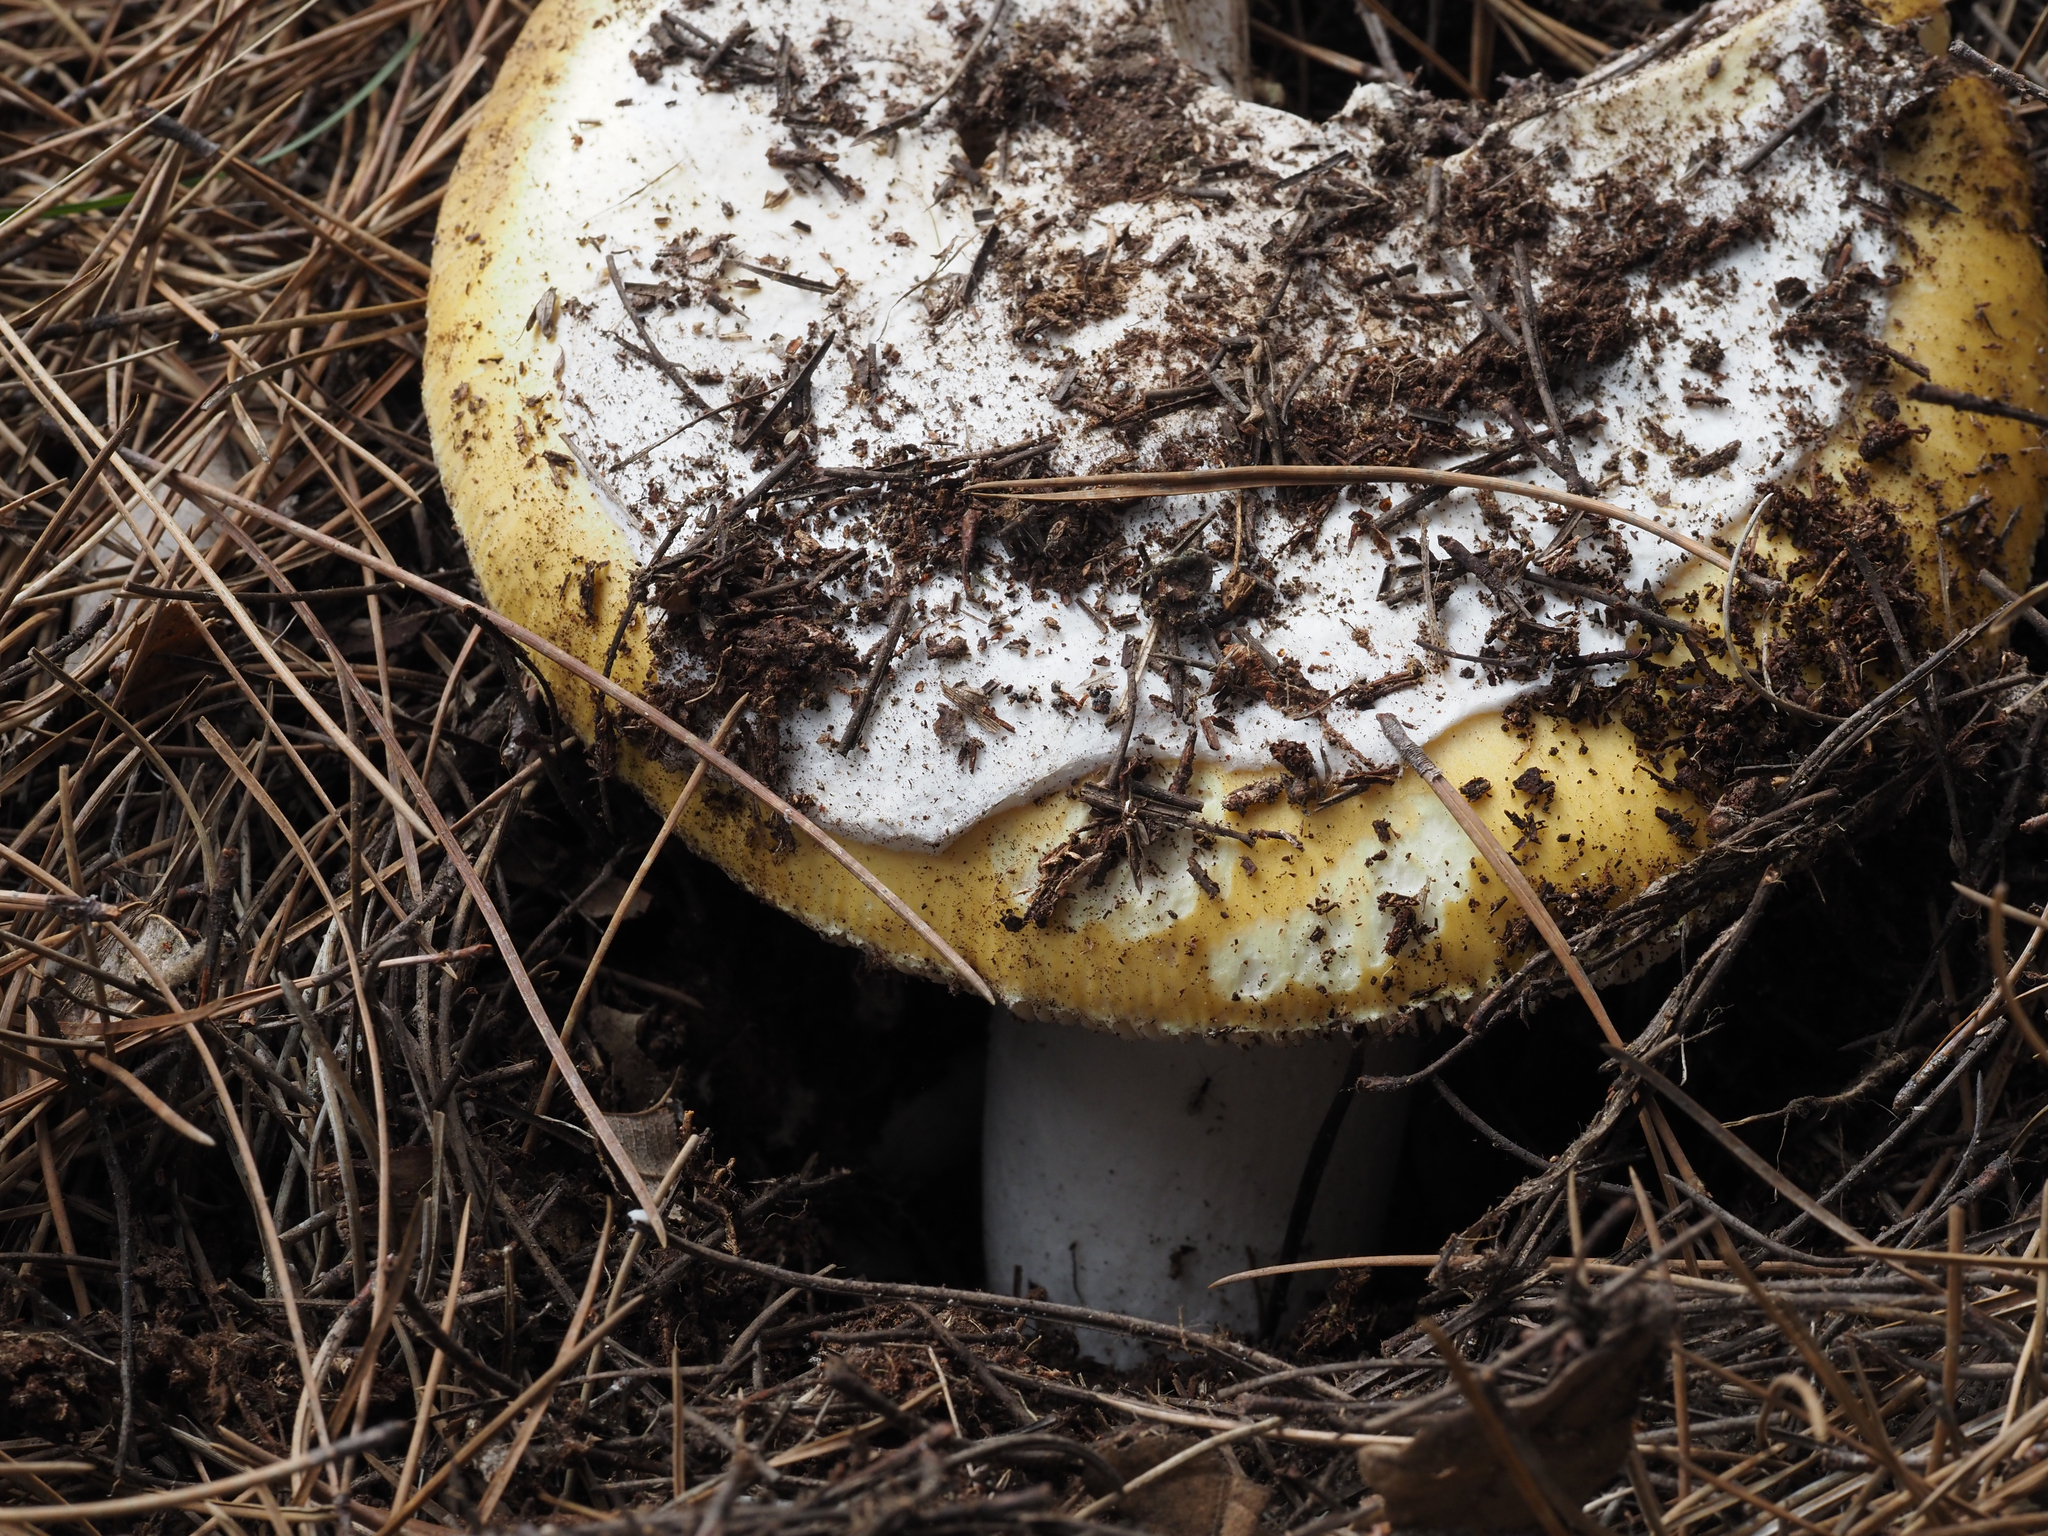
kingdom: Fungi
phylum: Basidiomycota
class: Agaricomycetes
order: Agaricales
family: Amanitaceae
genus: Amanita
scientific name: Amanita vernicoccora
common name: Spring coccora
